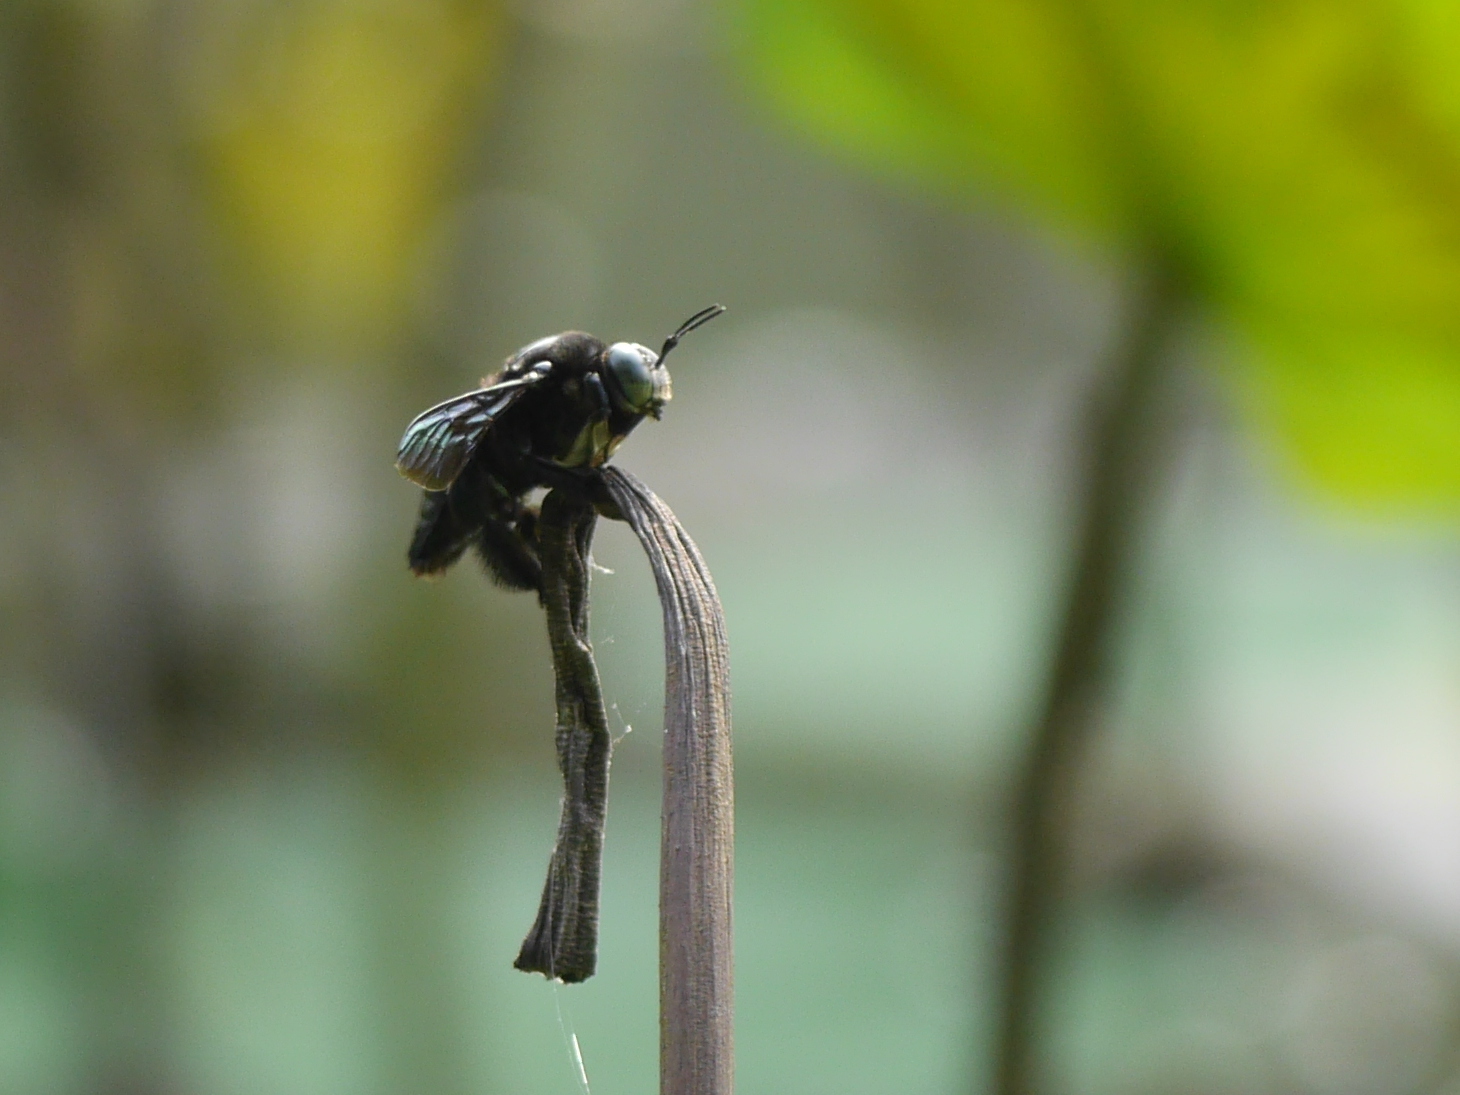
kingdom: Animalia
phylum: Arthropoda
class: Insecta
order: Hymenoptera
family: Apidae
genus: Xylocopa
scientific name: Xylocopa latipes
